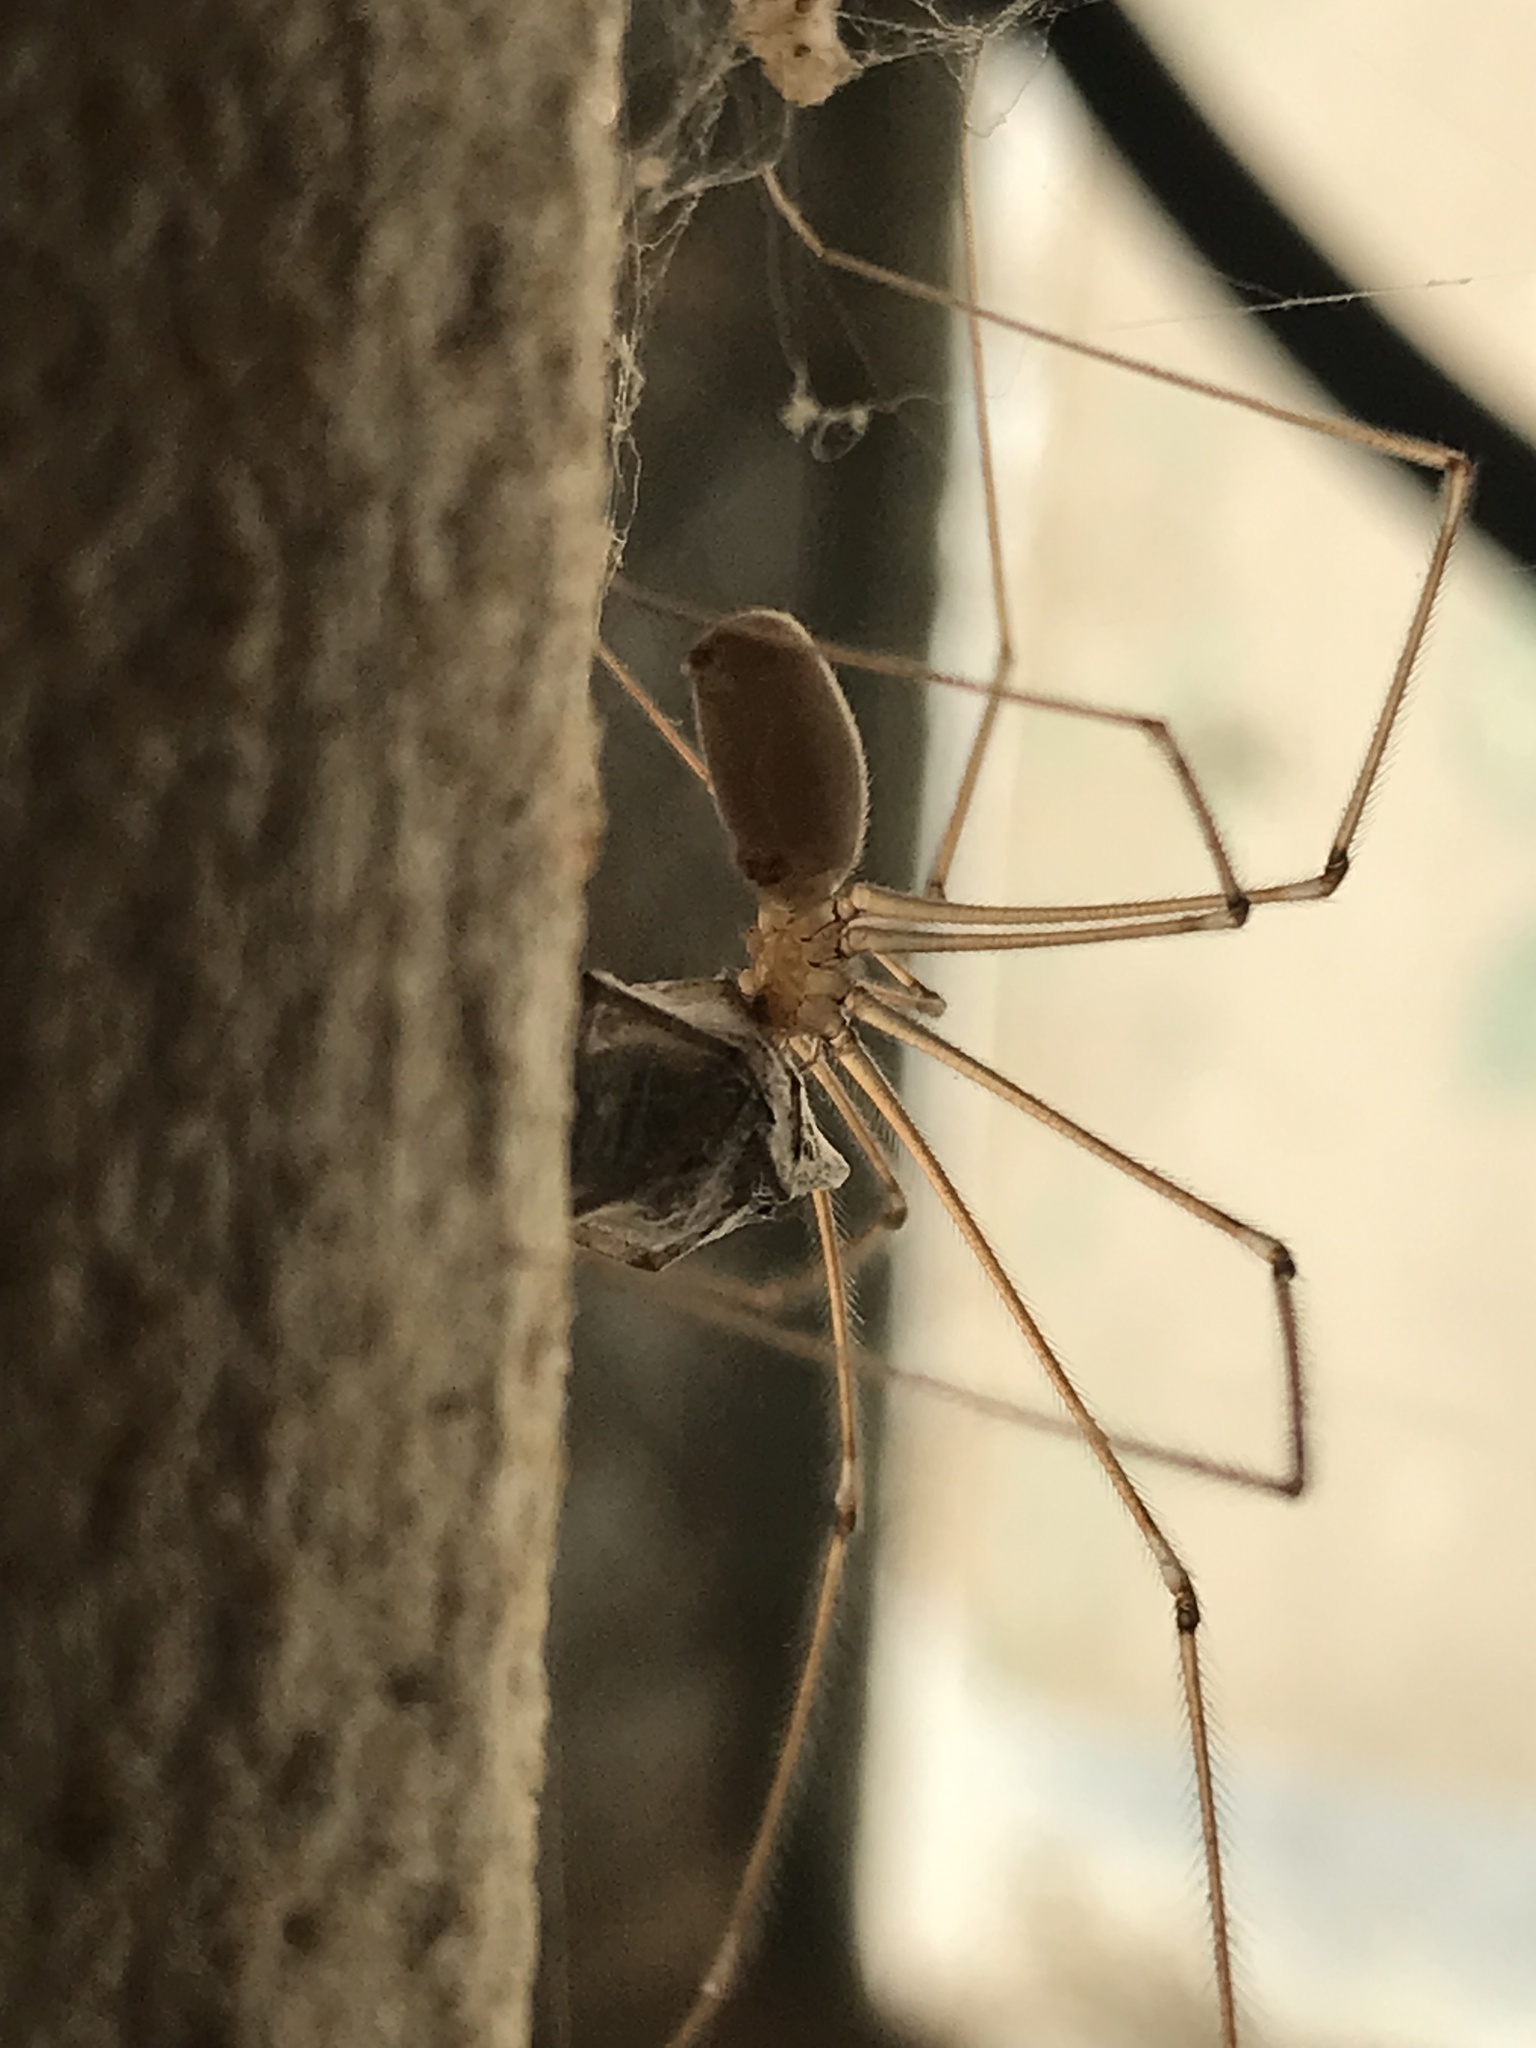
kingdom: Animalia
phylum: Arthropoda
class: Arachnida
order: Araneae
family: Pholcidae
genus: Pholcus
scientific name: Pholcus phalangioides
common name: Longbodied cellar spider
